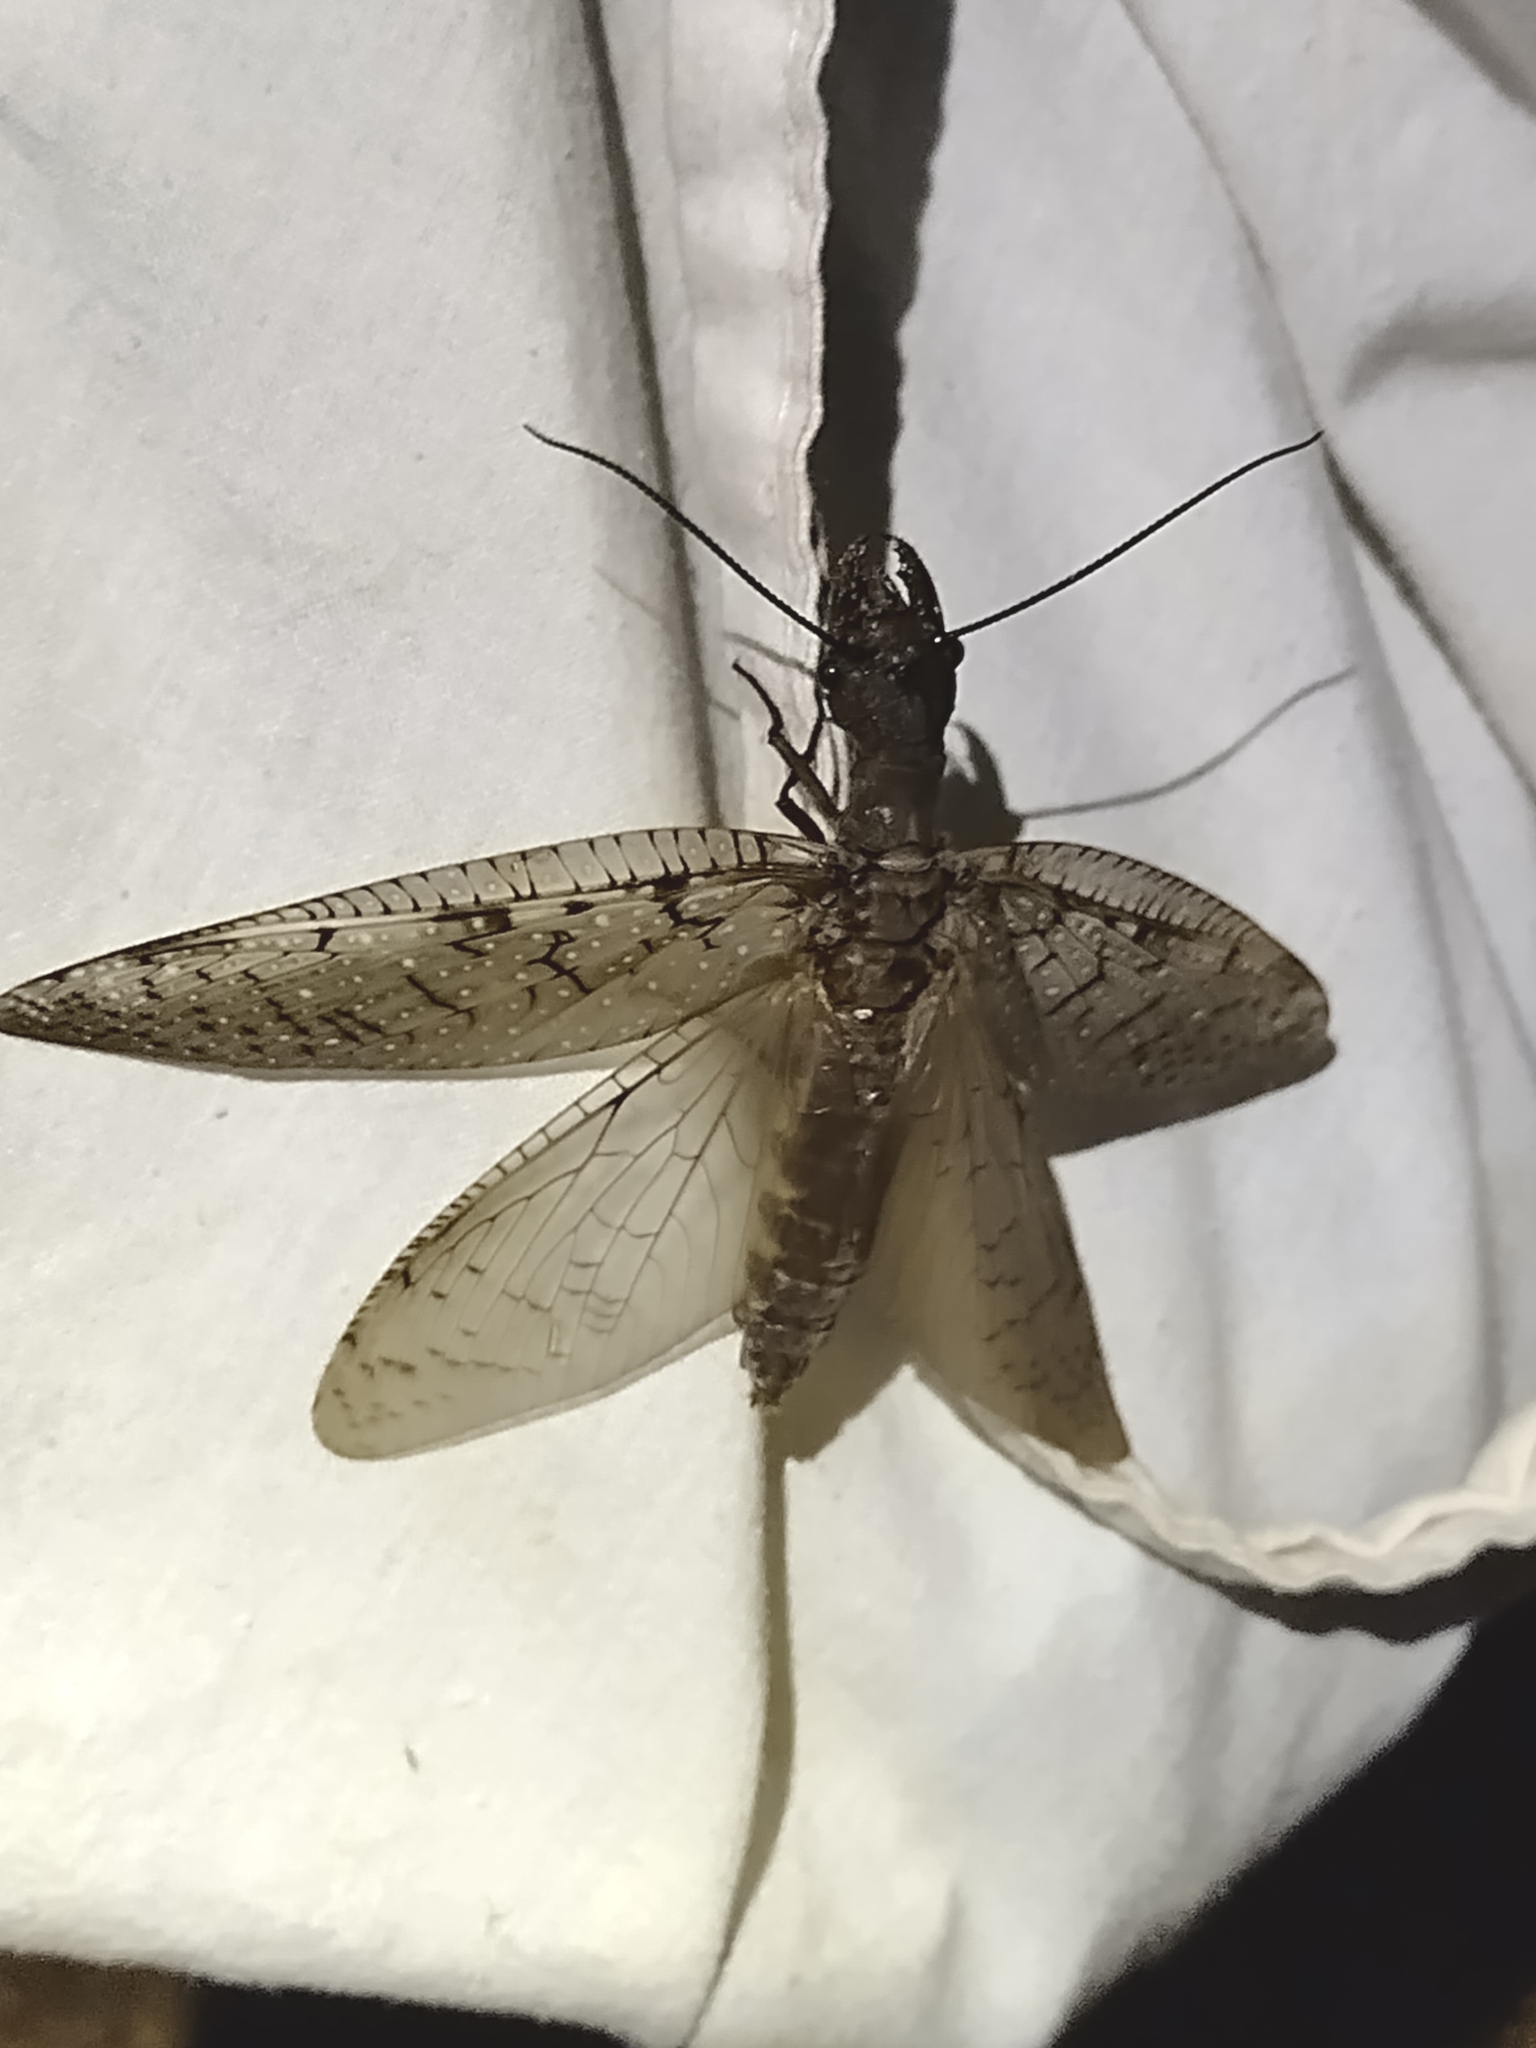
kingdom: Animalia
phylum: Arthropoda
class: Insecta
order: Megaloptera
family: Corydalidae
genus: Corydalus
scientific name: Corydalus cornutus
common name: Dobsonfly
